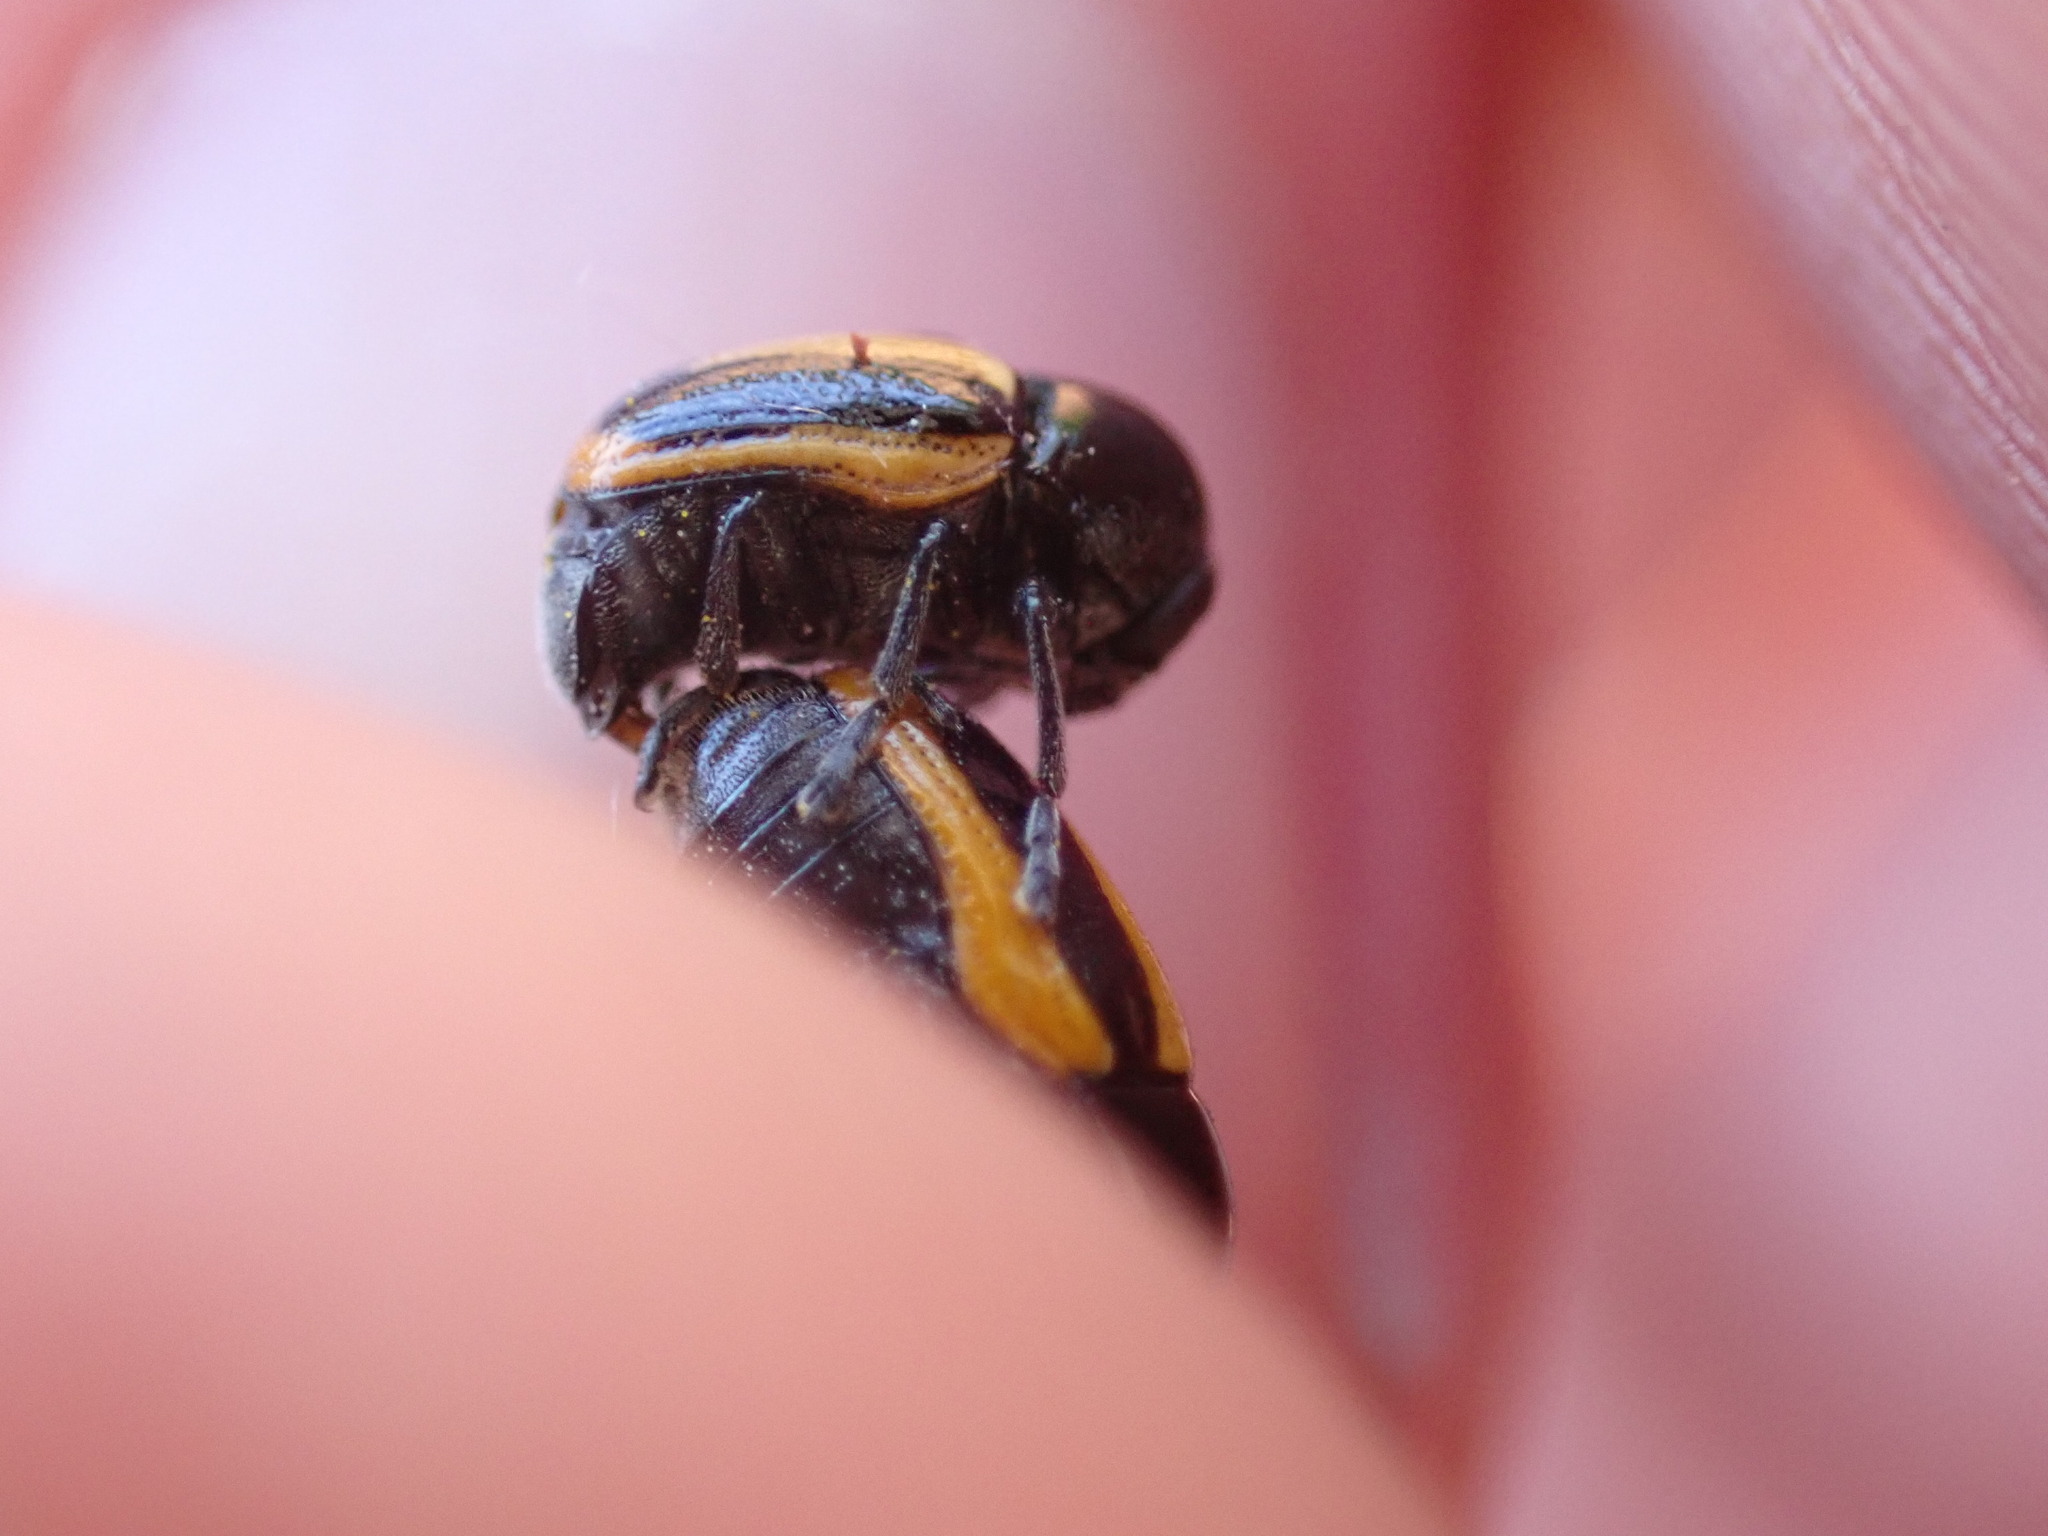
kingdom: Animalia
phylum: Arthropoda
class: Insecta
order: Coleoptera
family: Chrysomelidae
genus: Acalymma
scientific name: Acalymma vittatum
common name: Striped cucumber beetle
